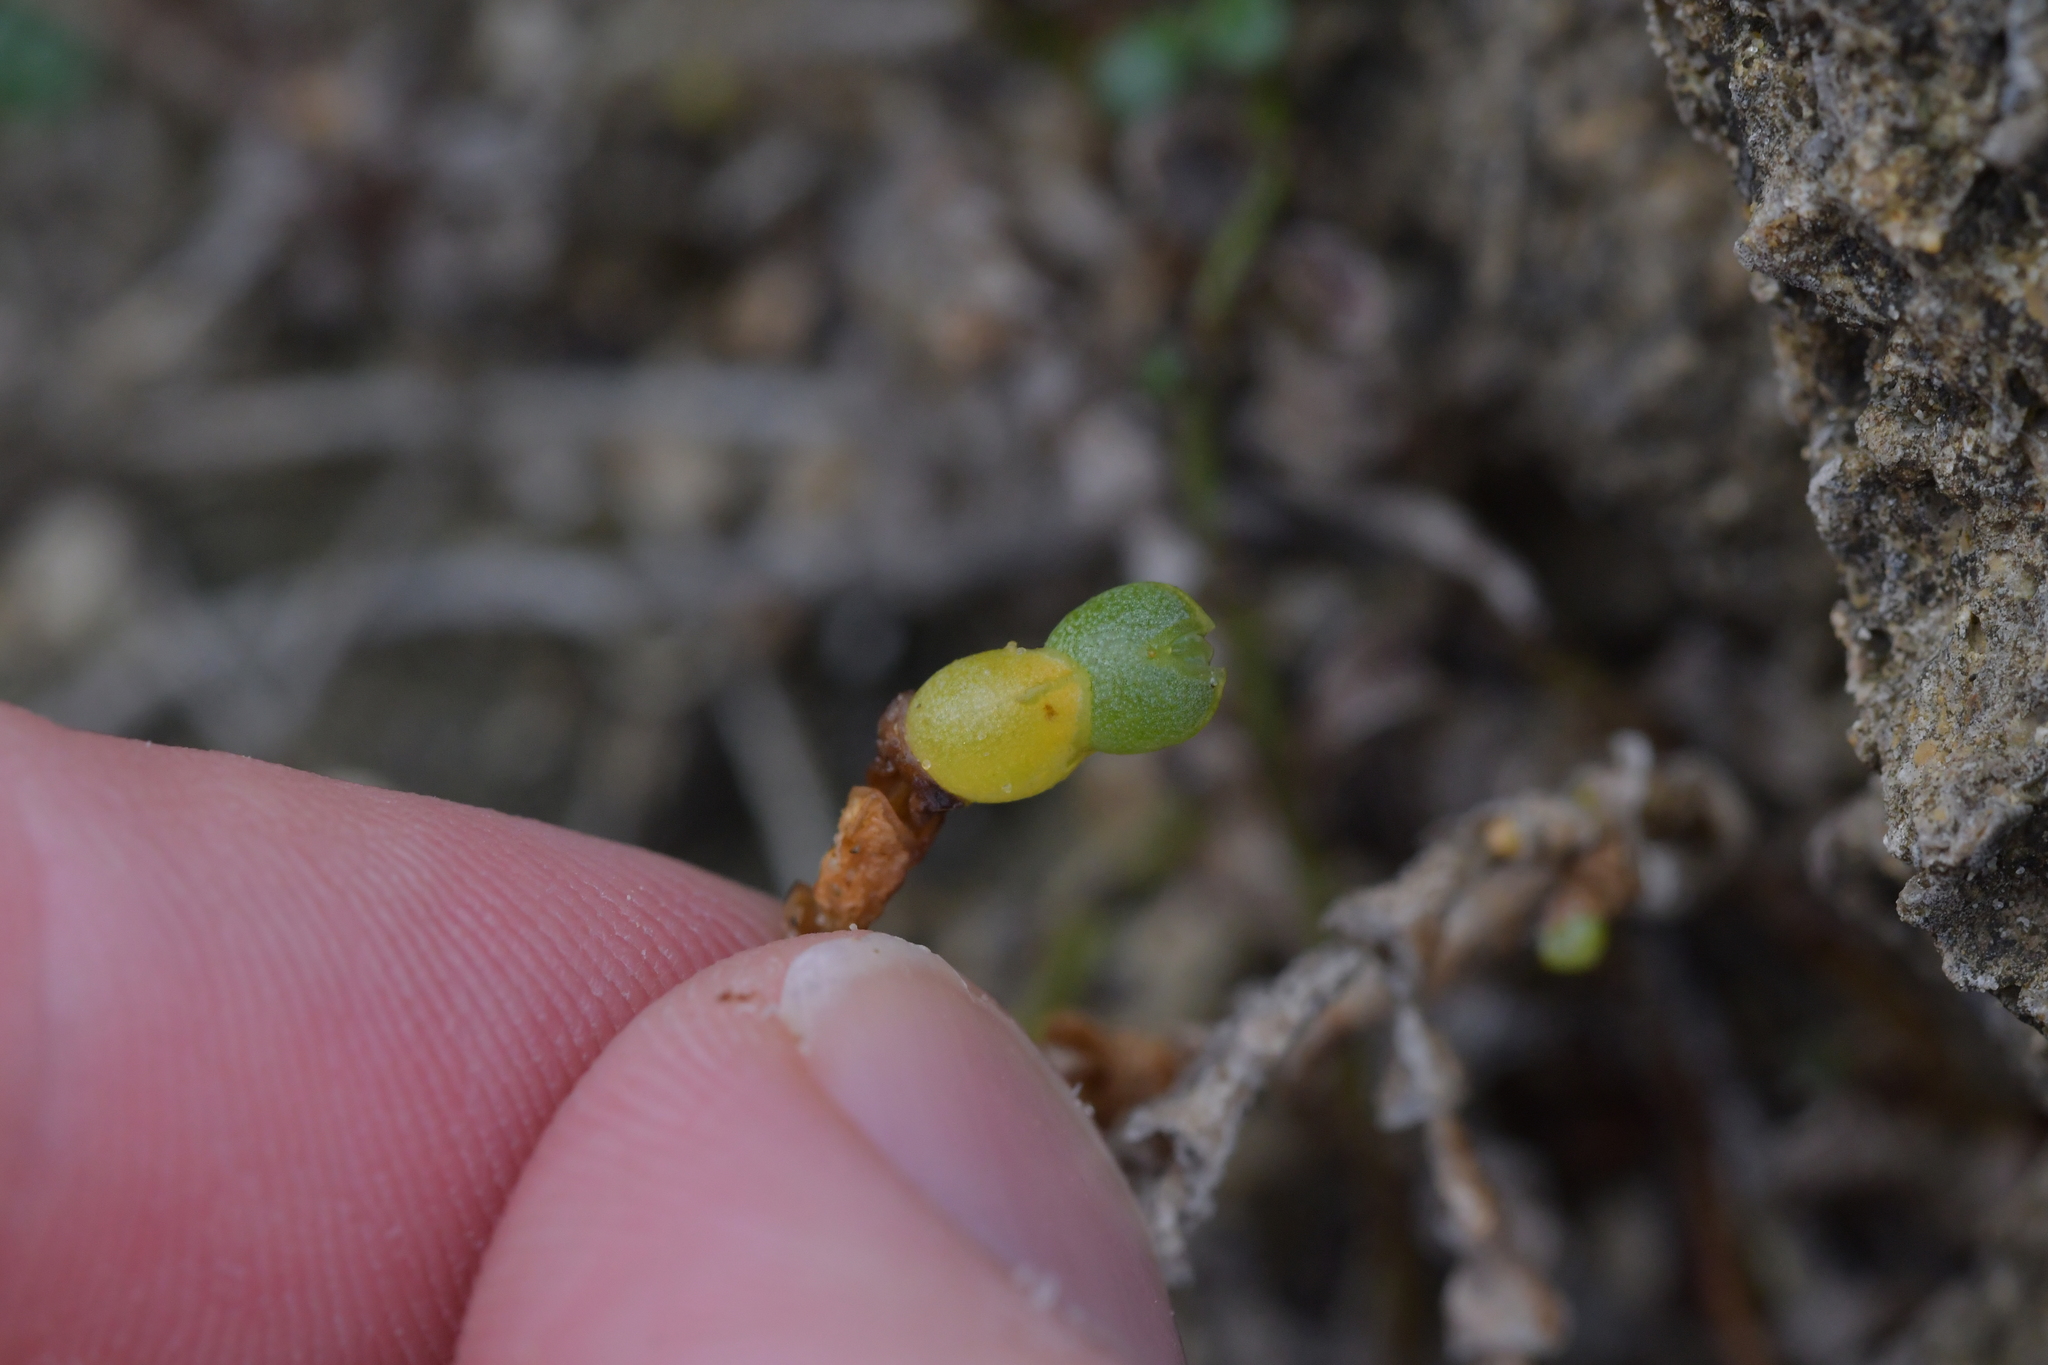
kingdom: Plantae
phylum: Tracheophyta
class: Magnoliopsida
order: Caryophyllales
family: Amaranthaceae
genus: Salicornia
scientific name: Salicornia quinqueflora
